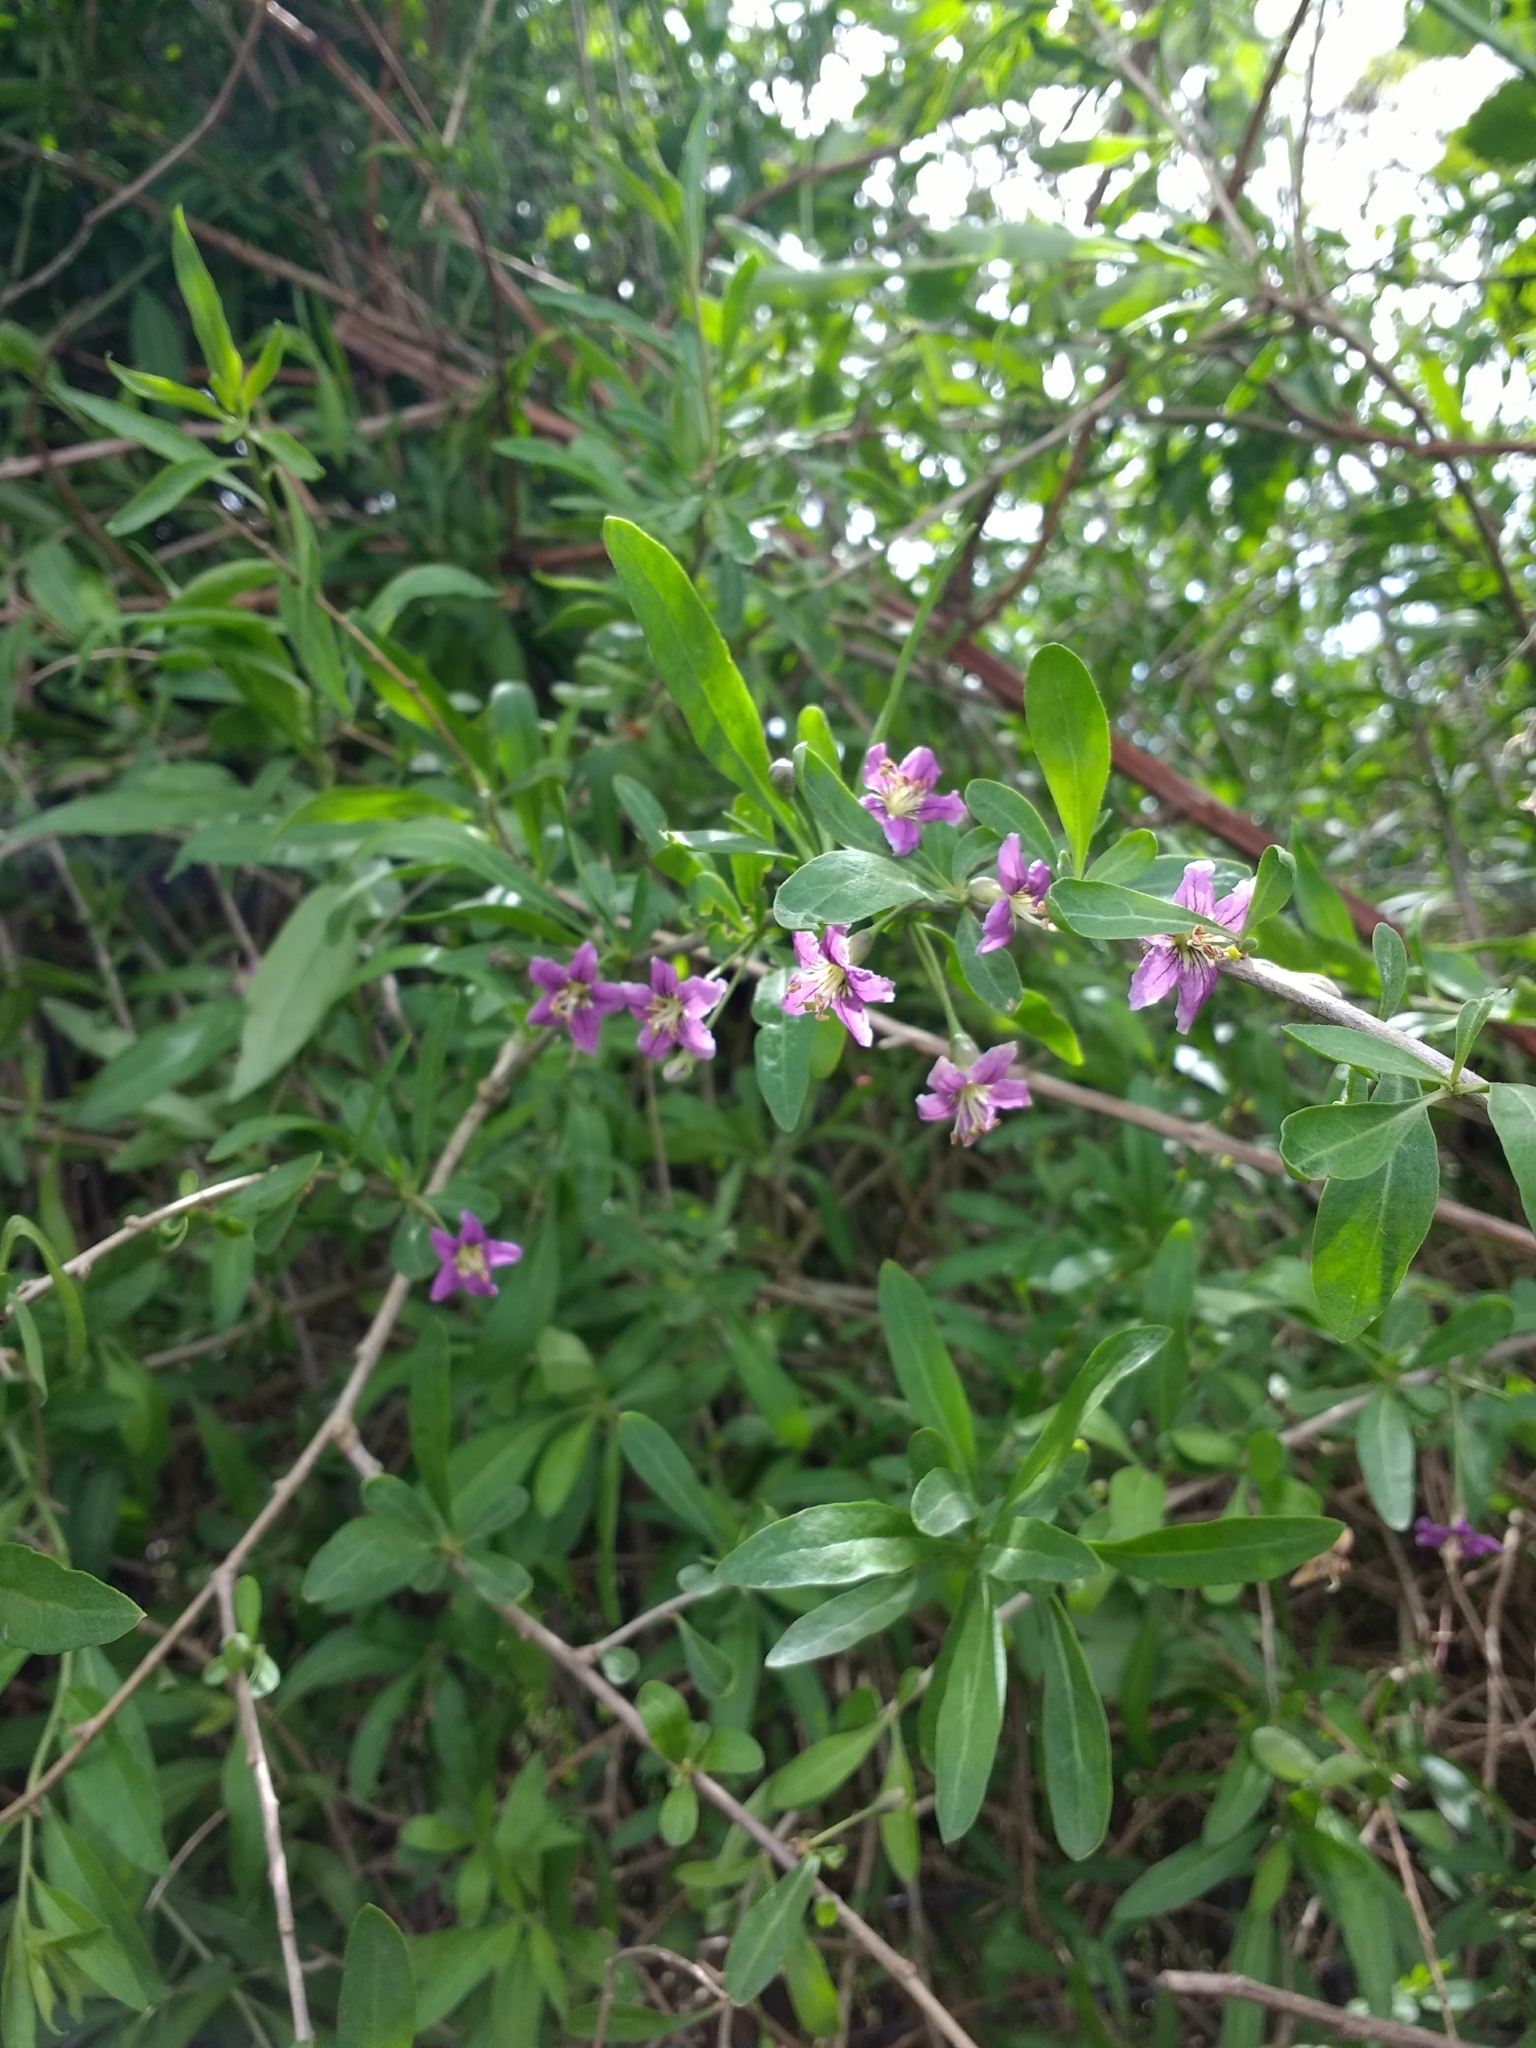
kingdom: Plantae
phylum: Tracheophyta
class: Magnoliopsida
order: Solanales
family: Solanaceae
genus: Lycium
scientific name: Lycium barbarum
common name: Duke of argyll's teaplant
